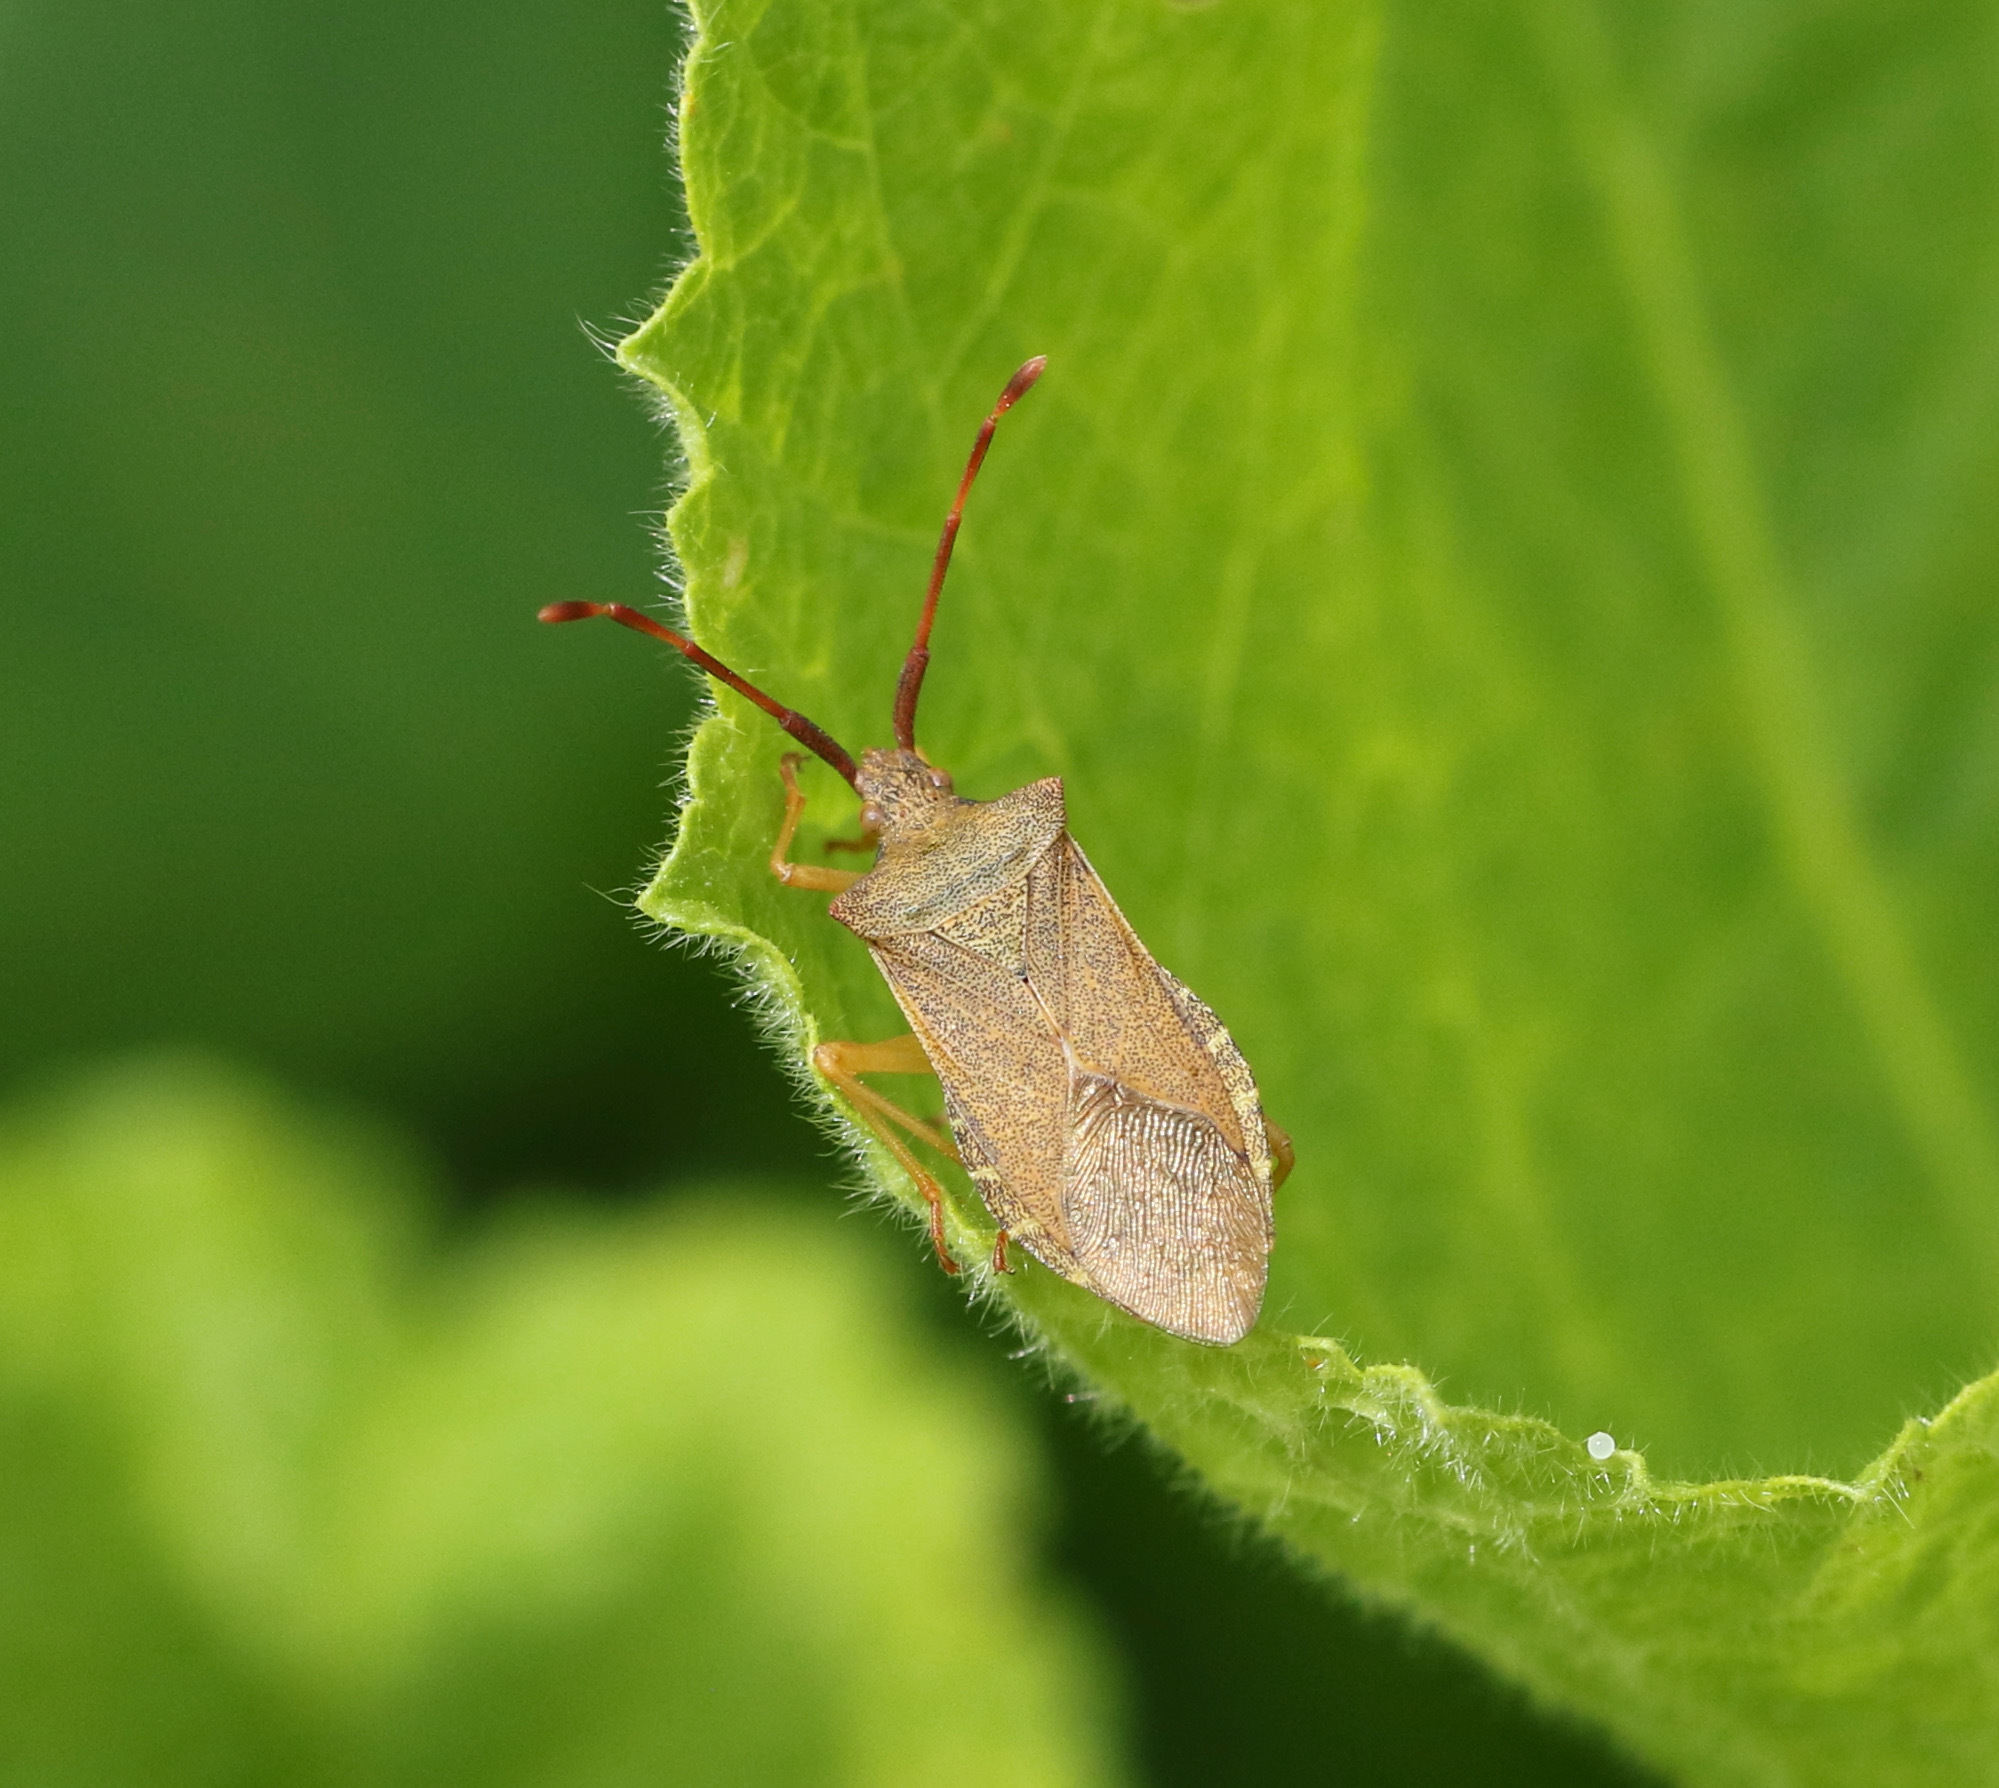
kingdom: Animalia
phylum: Arthropoda
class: Insecta
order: Hemiptera
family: Coreidae
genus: Gonocerus
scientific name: Gonocerus acuteangulatus
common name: Box bug
